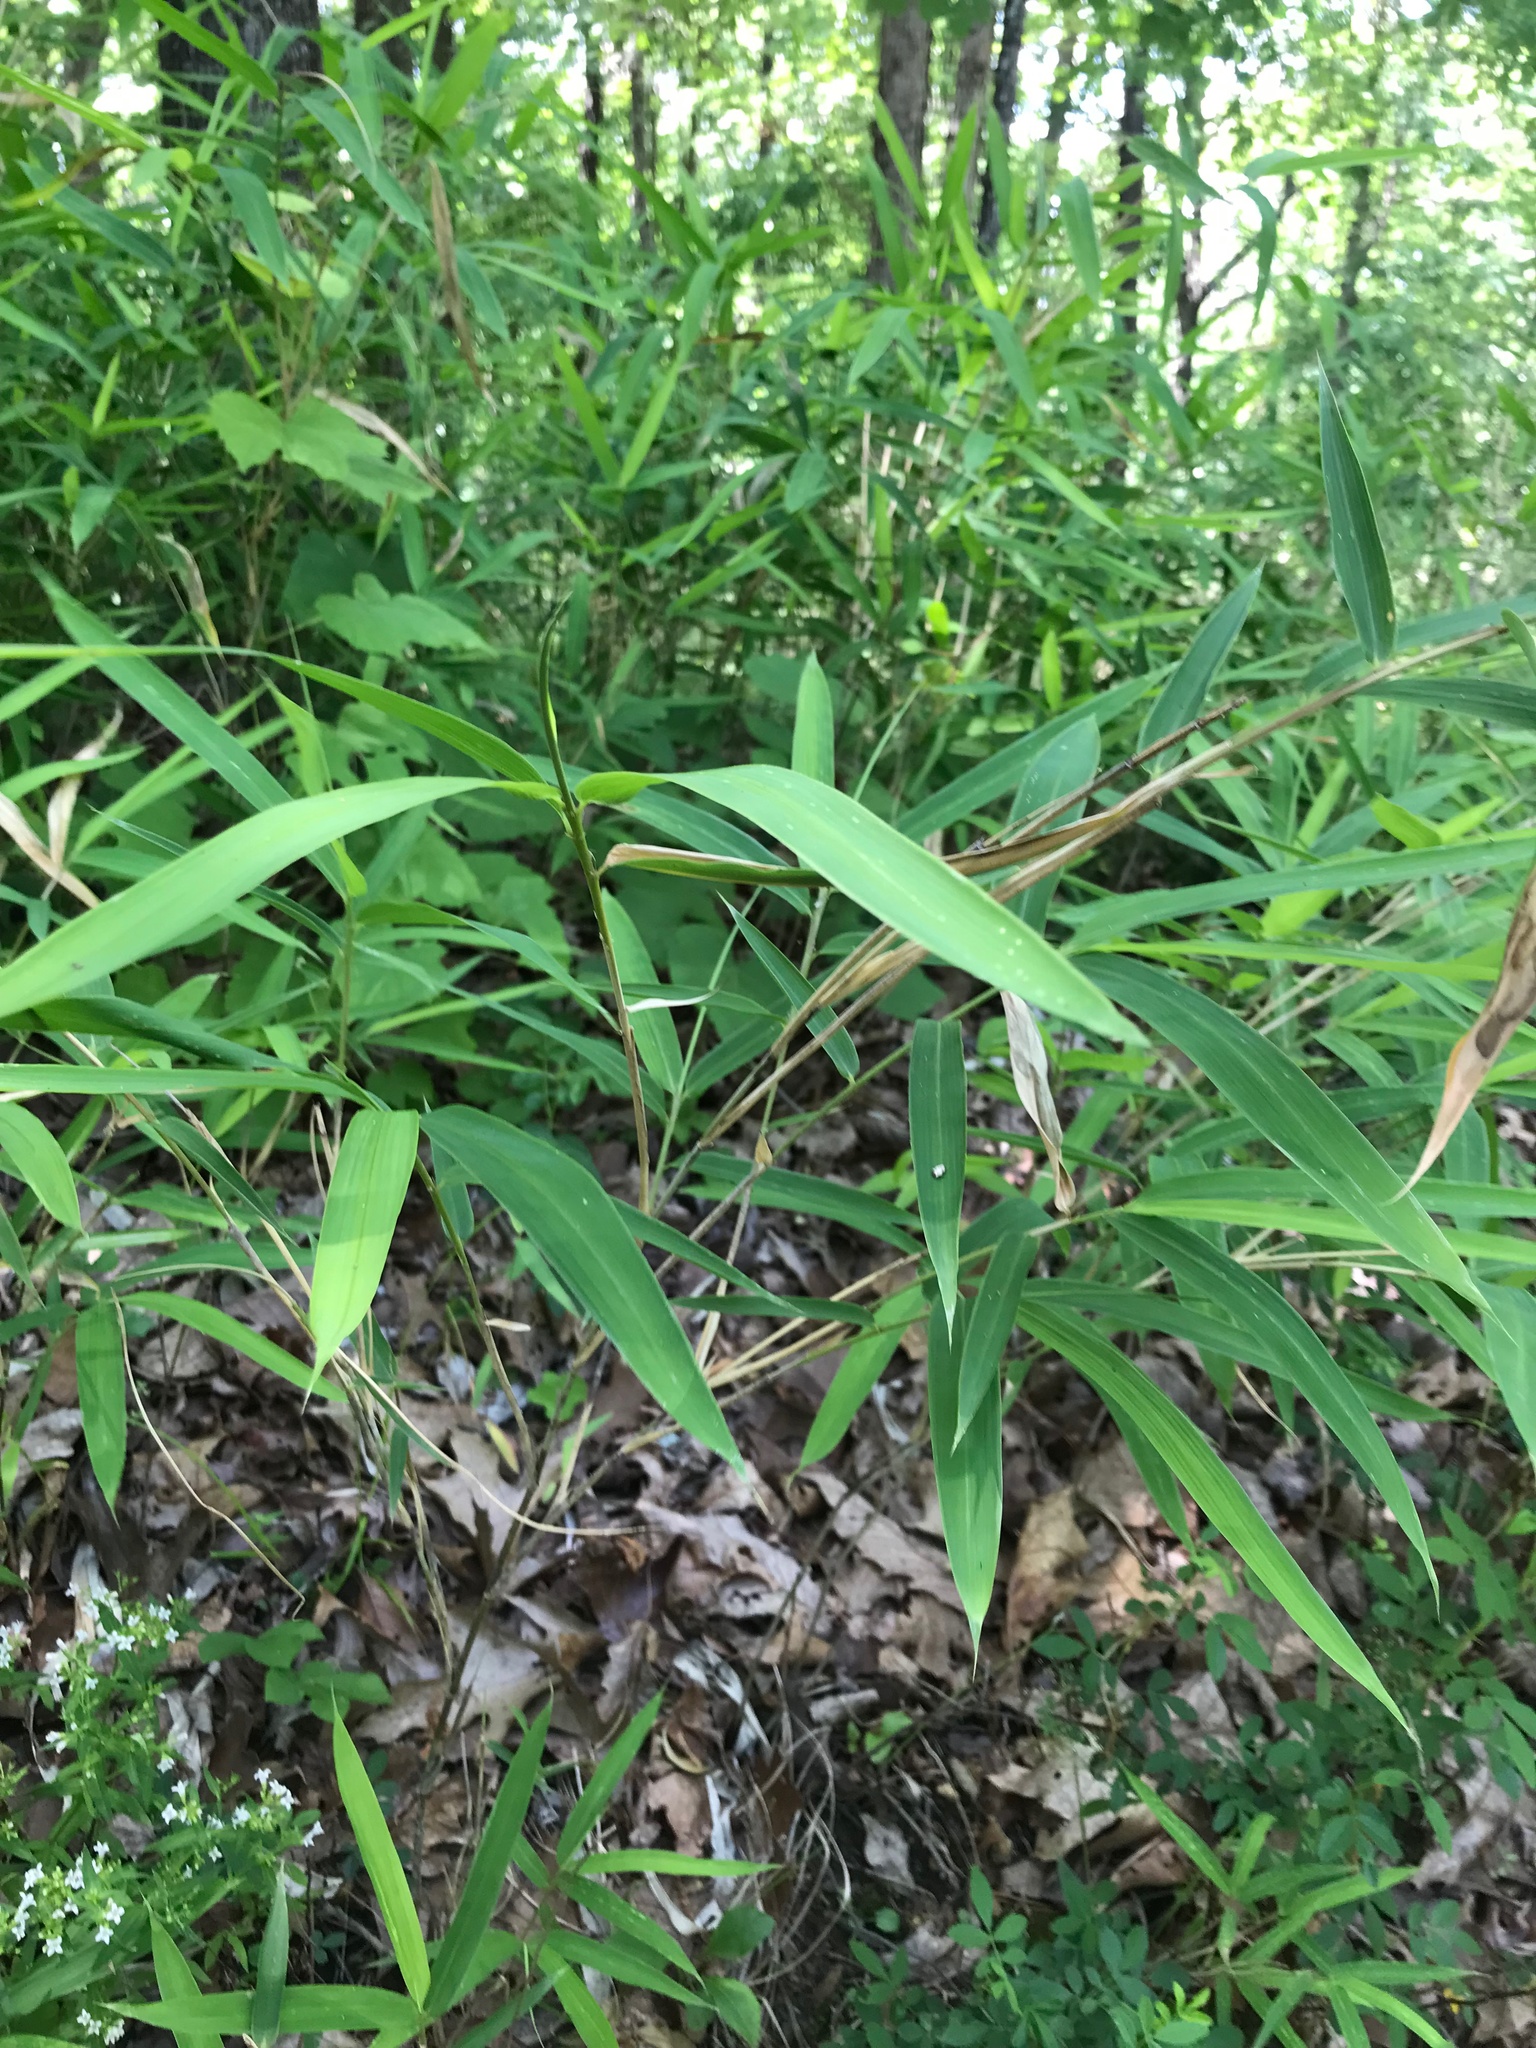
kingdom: Plantae
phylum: Tracheophyta
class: Liliopsida
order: Poales
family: Poaceae
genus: Arundinaria
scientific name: Arundinaria appalachiana
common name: Hill cane
